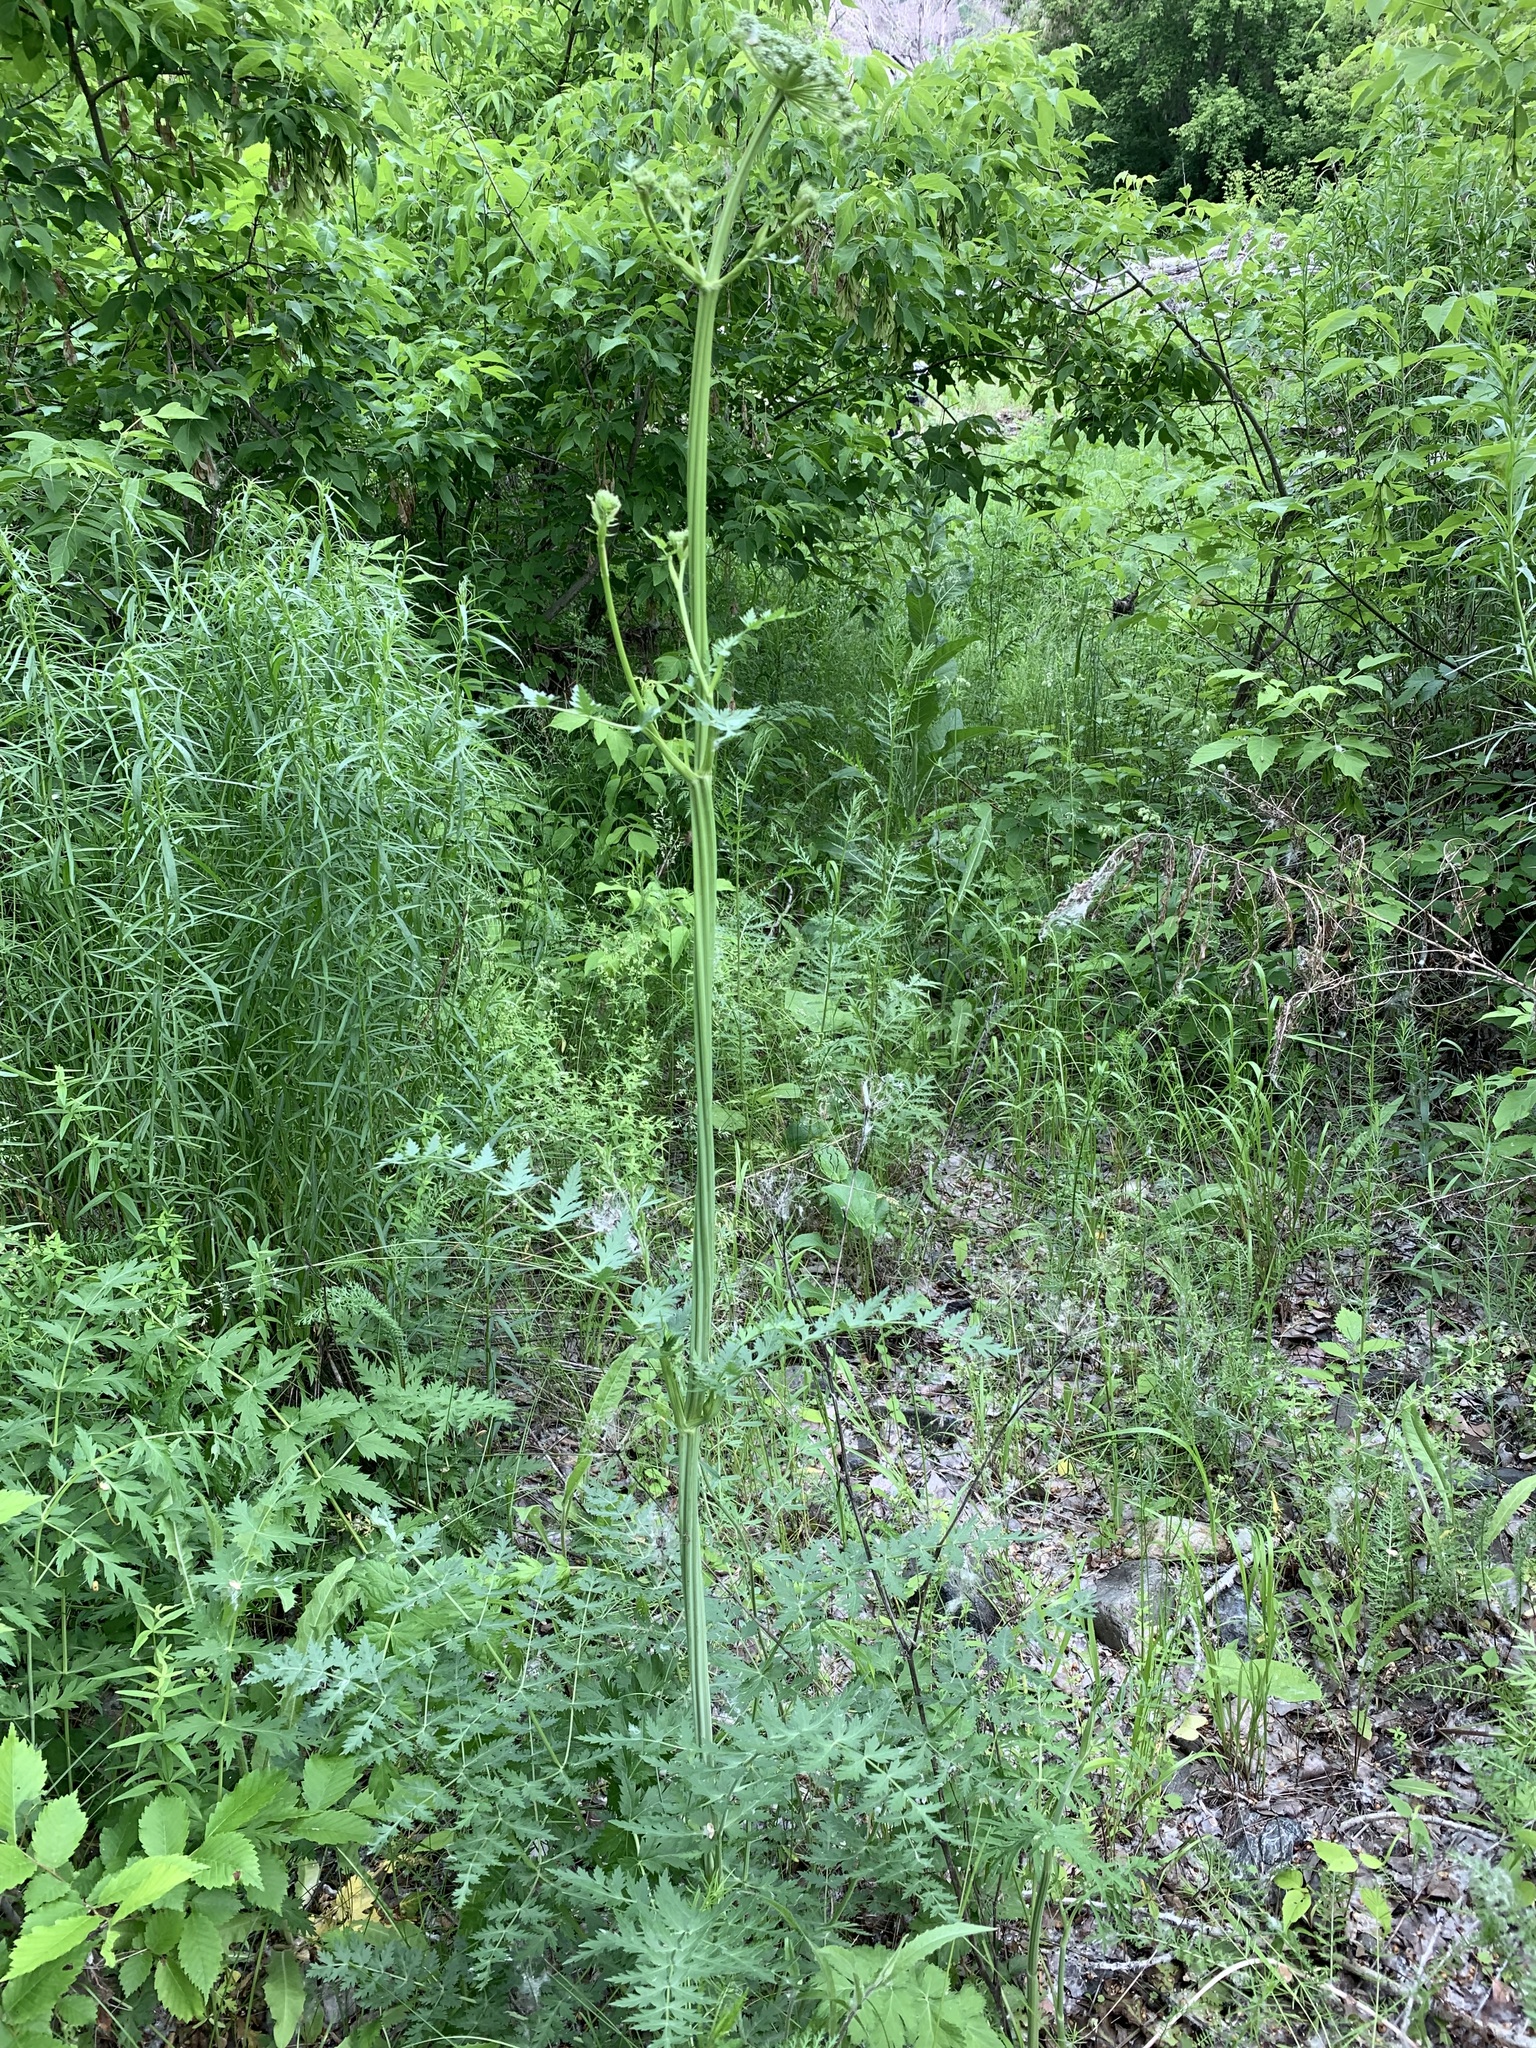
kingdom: Plantae
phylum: Tracheophyta
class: Magnoliopsida
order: Apiales
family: Apiaceae
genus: Seseli
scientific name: Seseli libanotis
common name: Mooncarrot
